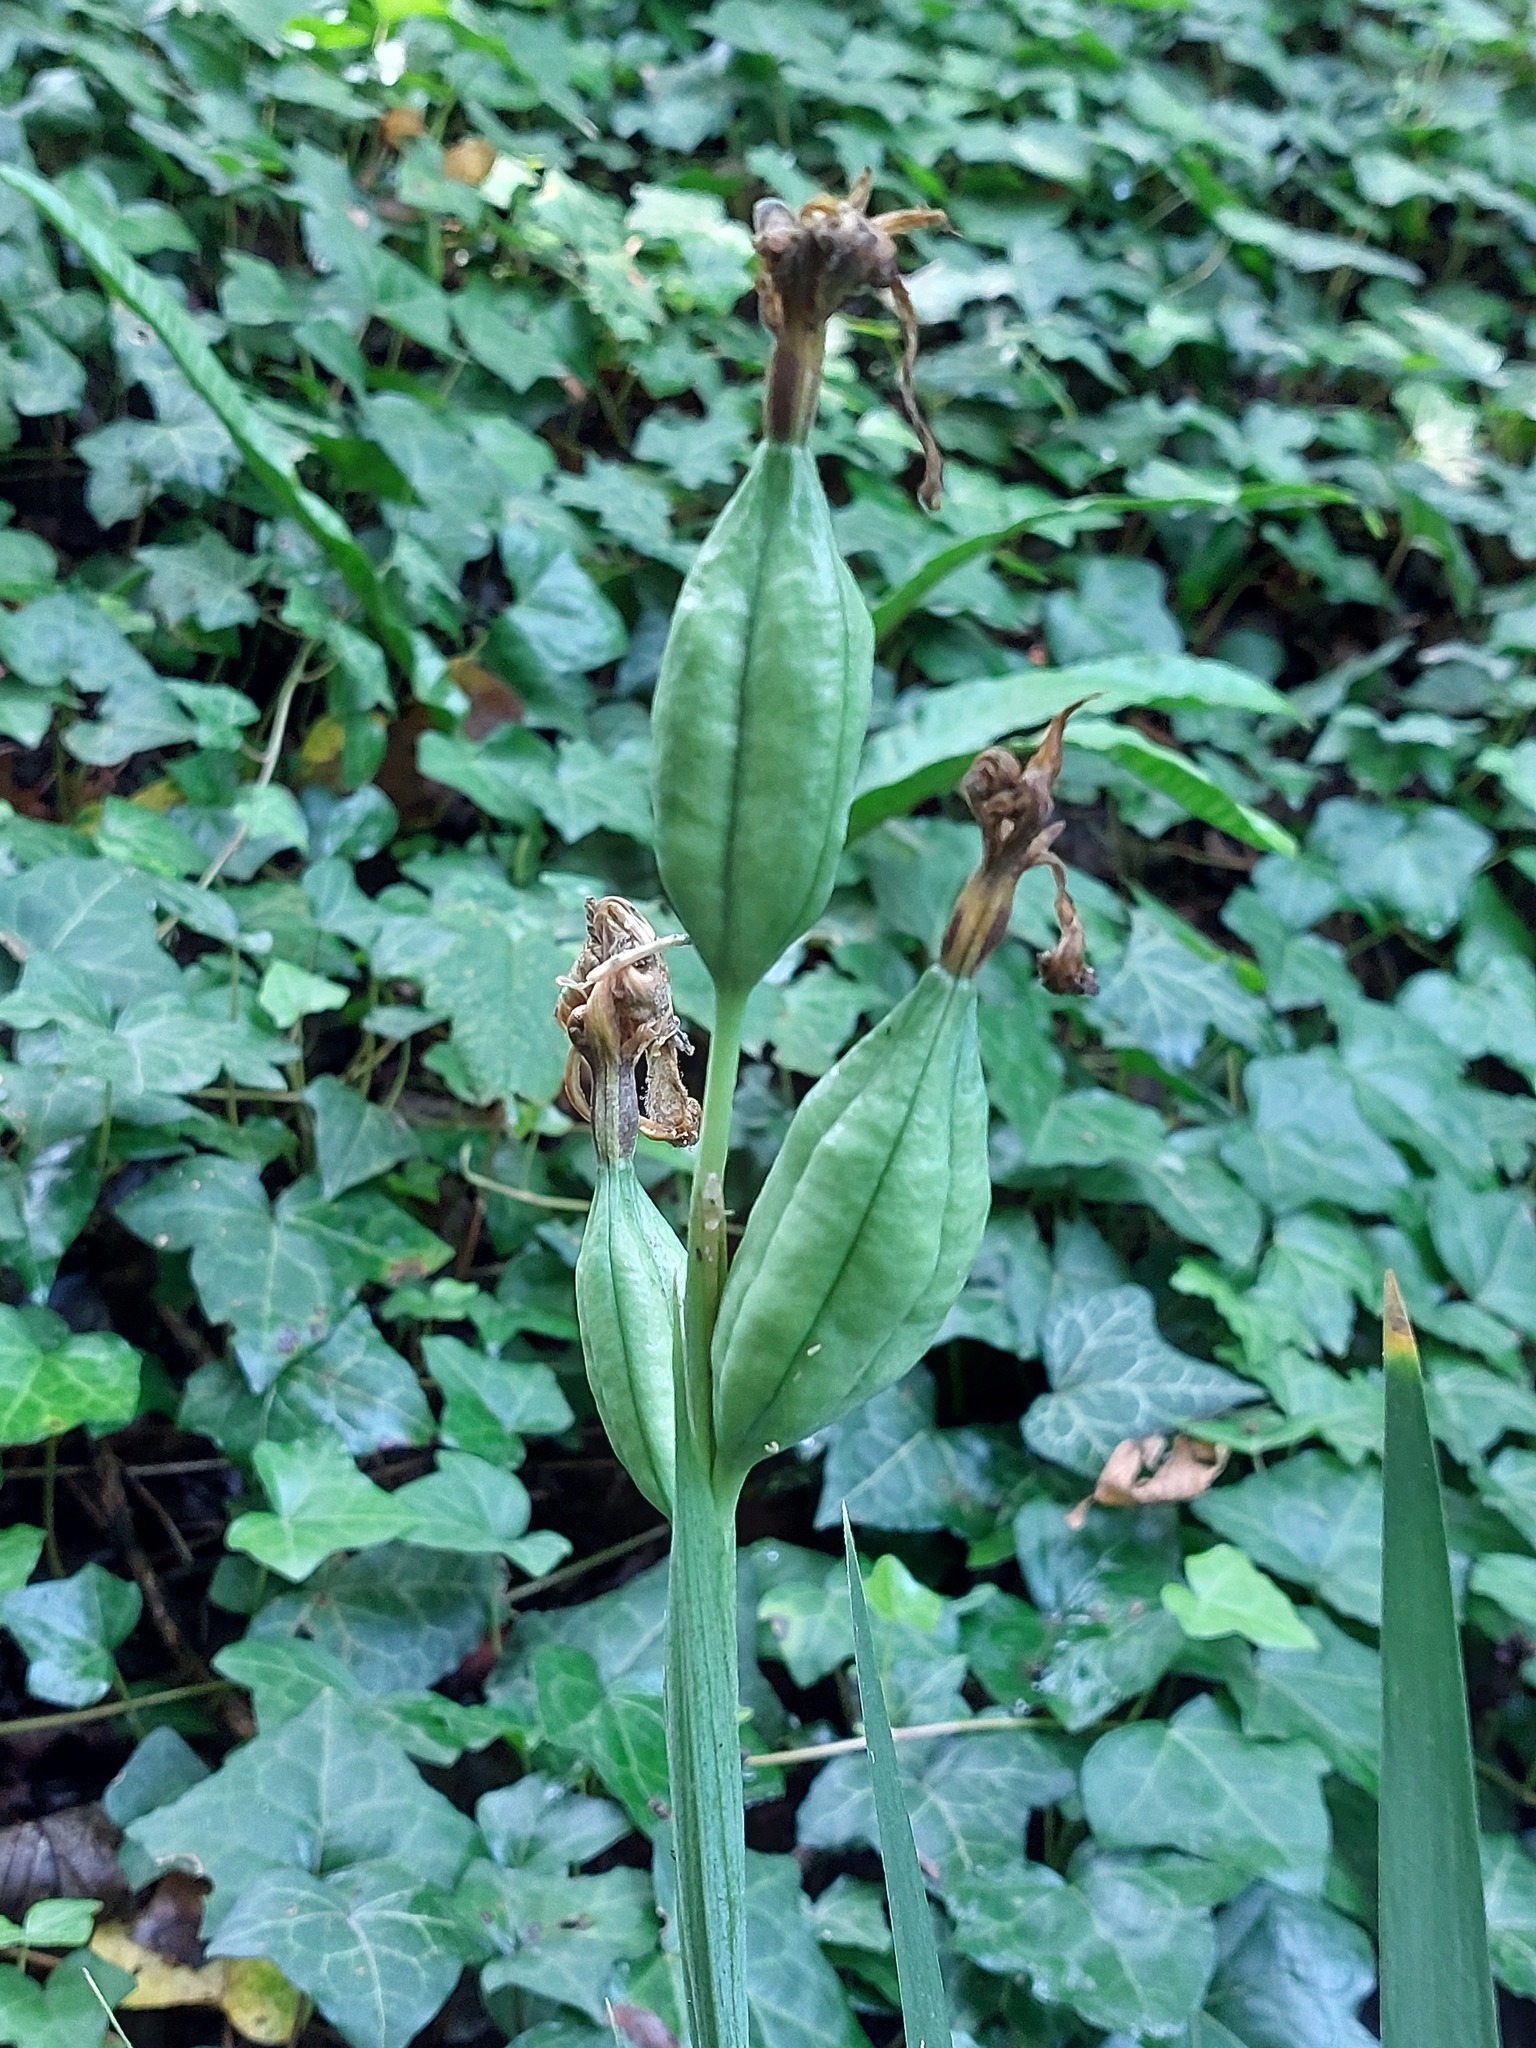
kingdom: Plantae
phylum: Tracheophyta
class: Liliopsida
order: Asparagales
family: Iridaceae
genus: Iris
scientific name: Iris foetidissima
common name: Stinking iris
